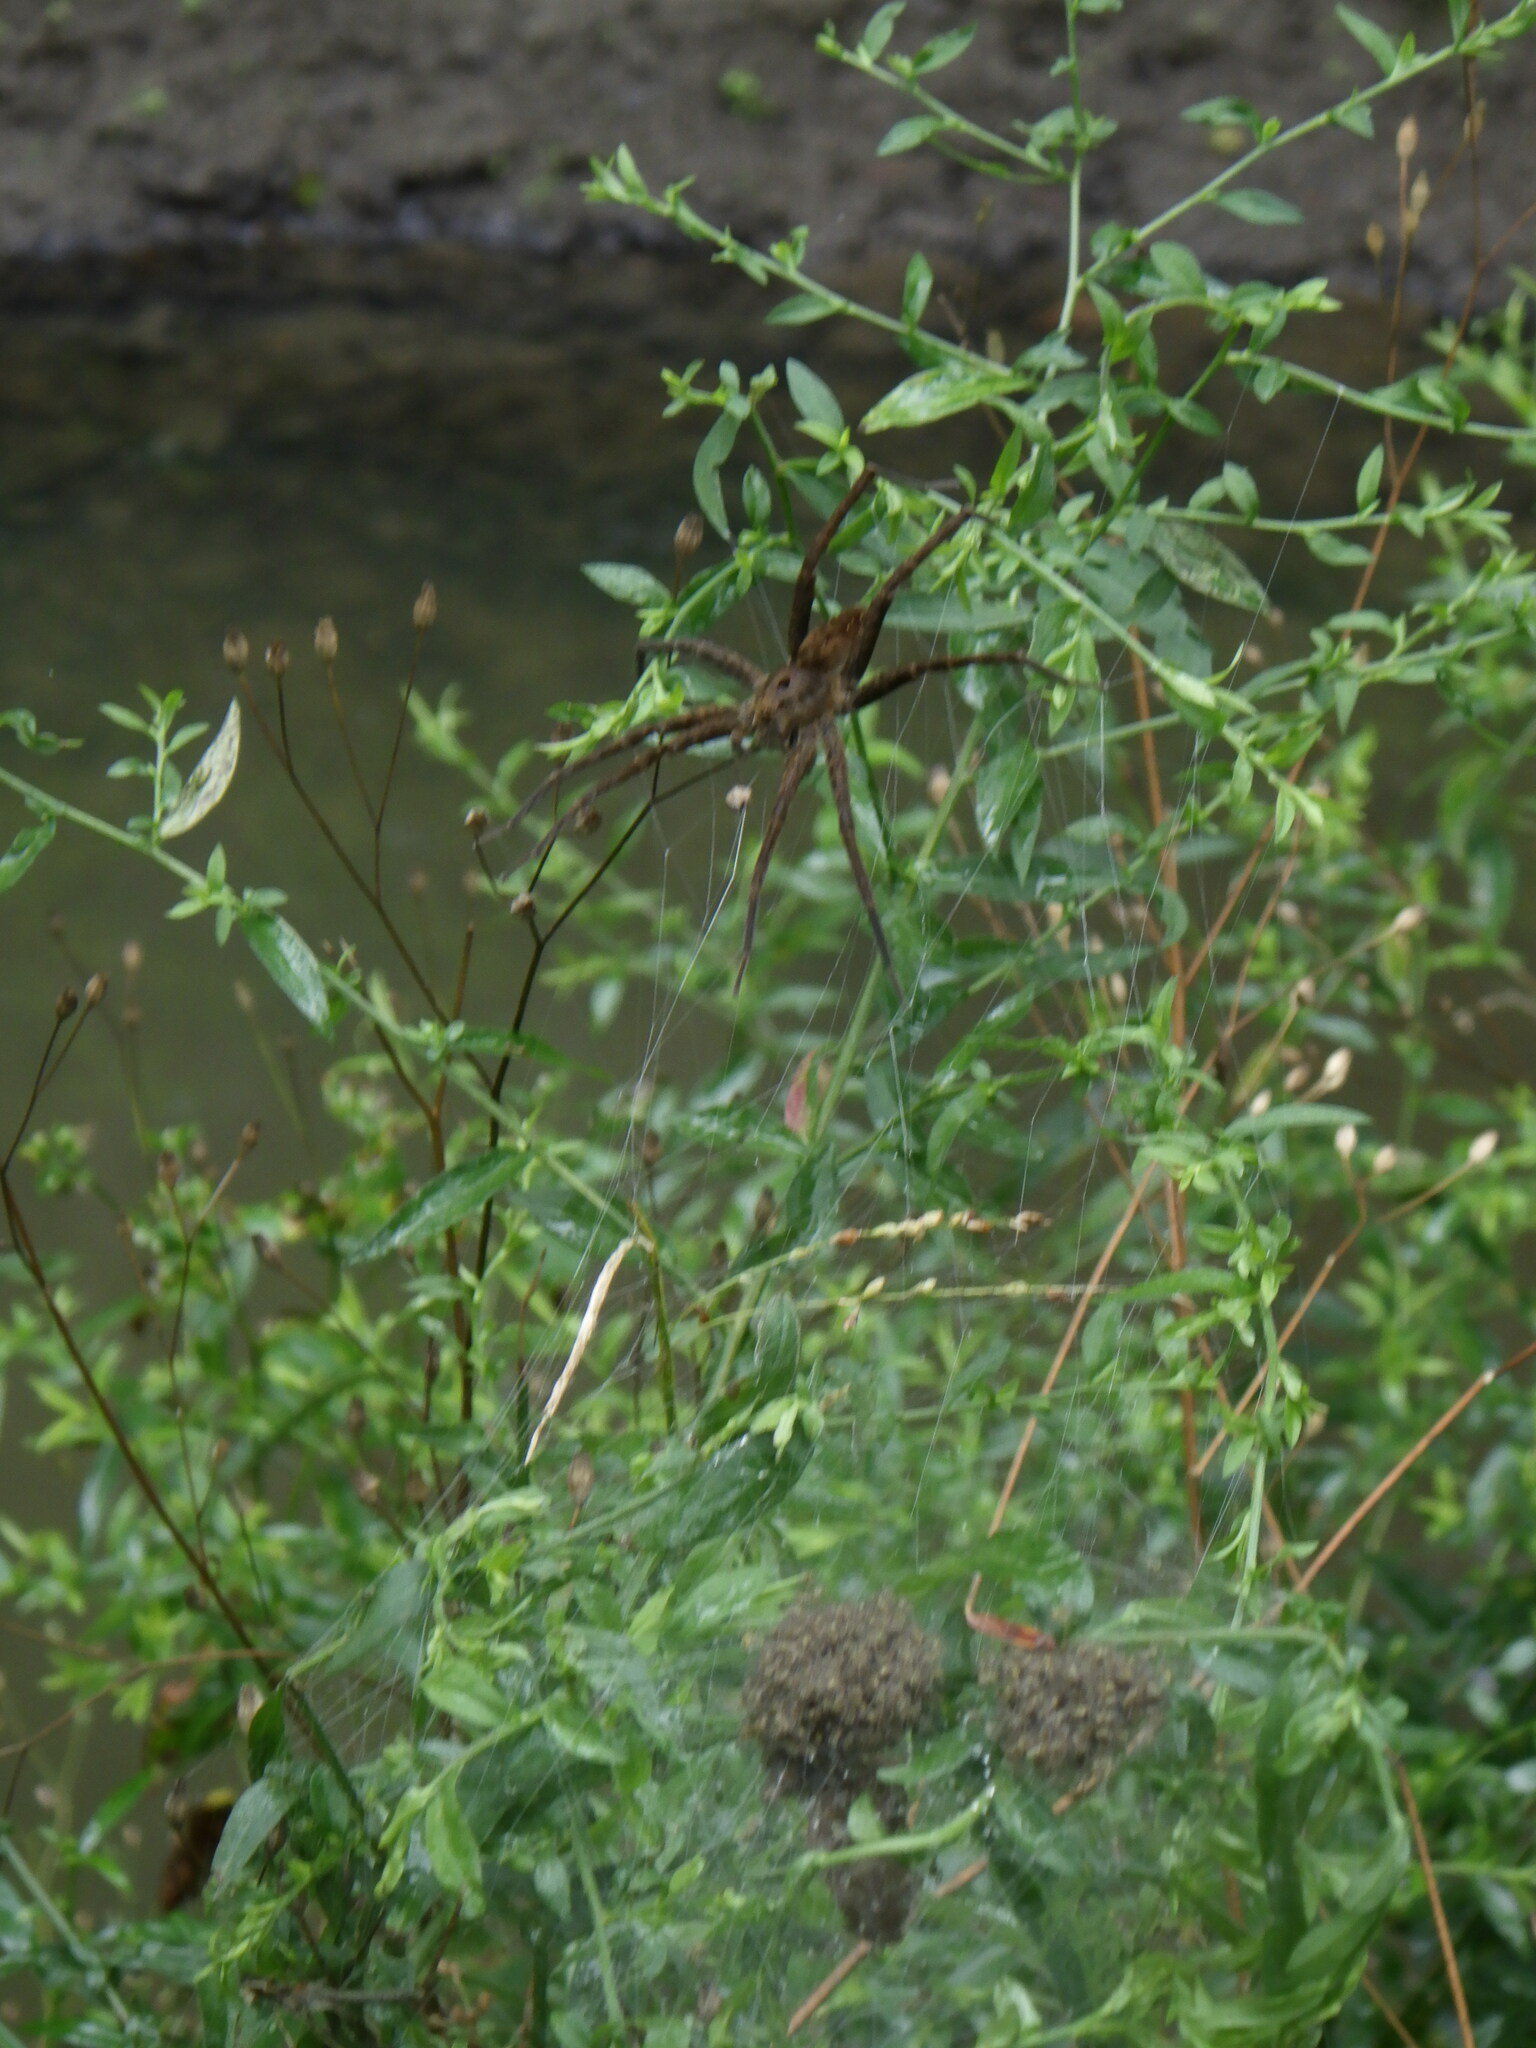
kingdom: Animalia
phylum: Arthropoda
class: Arachnida
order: Araneae
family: Pisauridae
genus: Dolomedes
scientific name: Dolomedes vittatus
